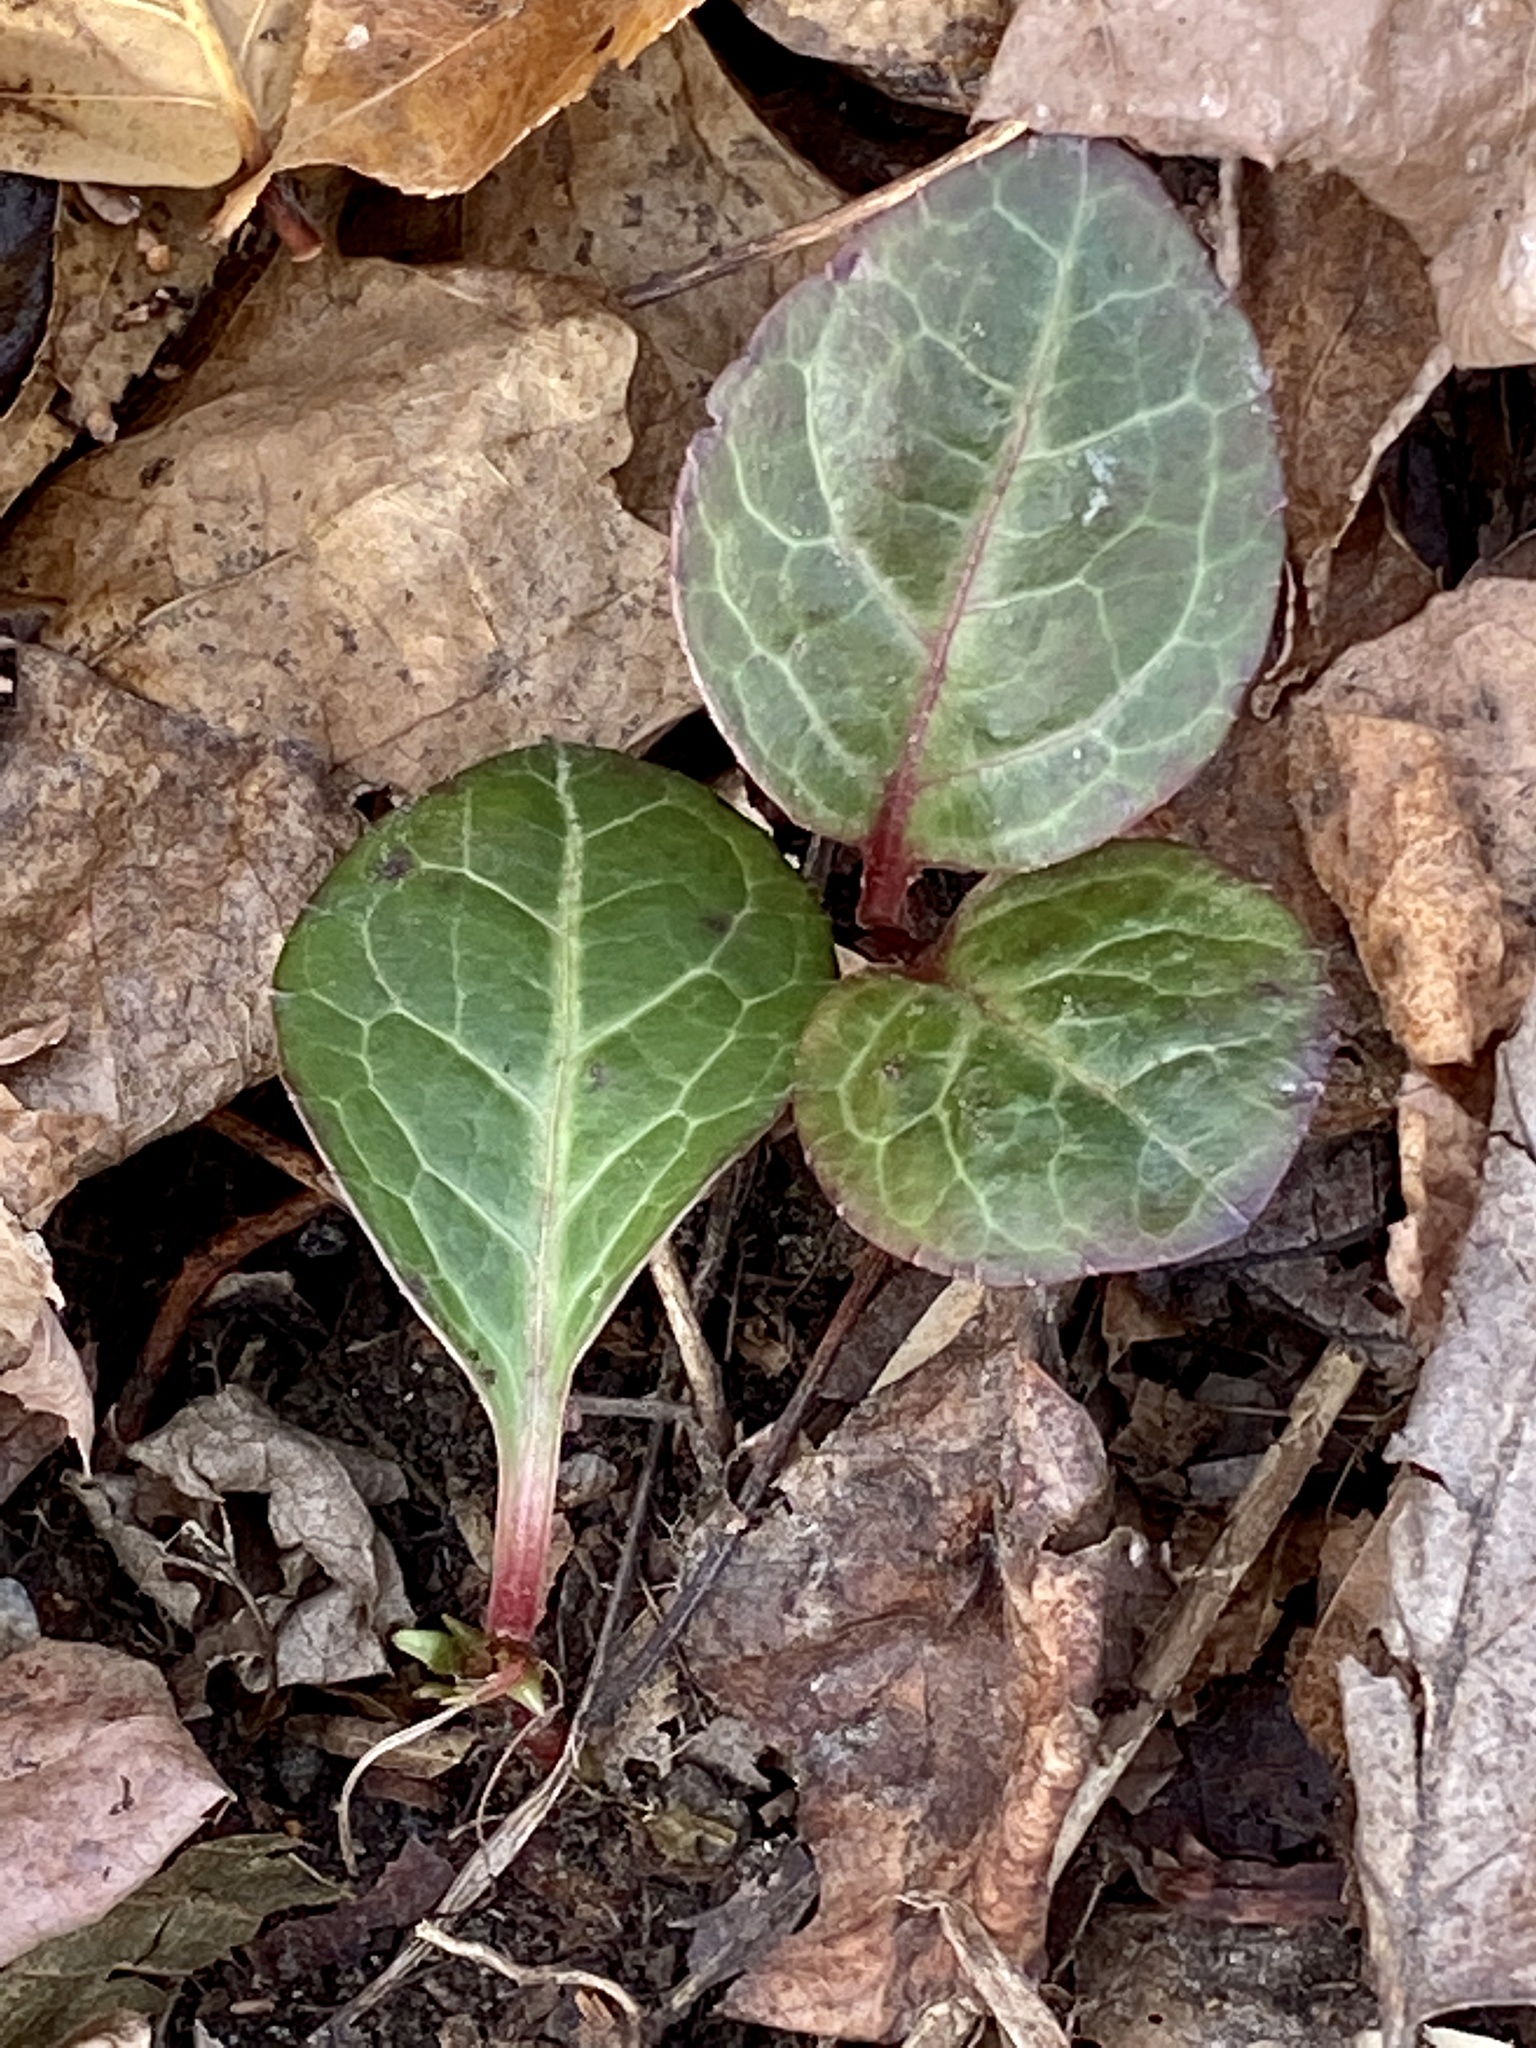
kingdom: Plantae
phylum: Tracheophyta
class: Magnoliopsida
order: Ericales
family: Ericaceae
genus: Pyrola
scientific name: Pyrola americana
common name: American wintergreen
